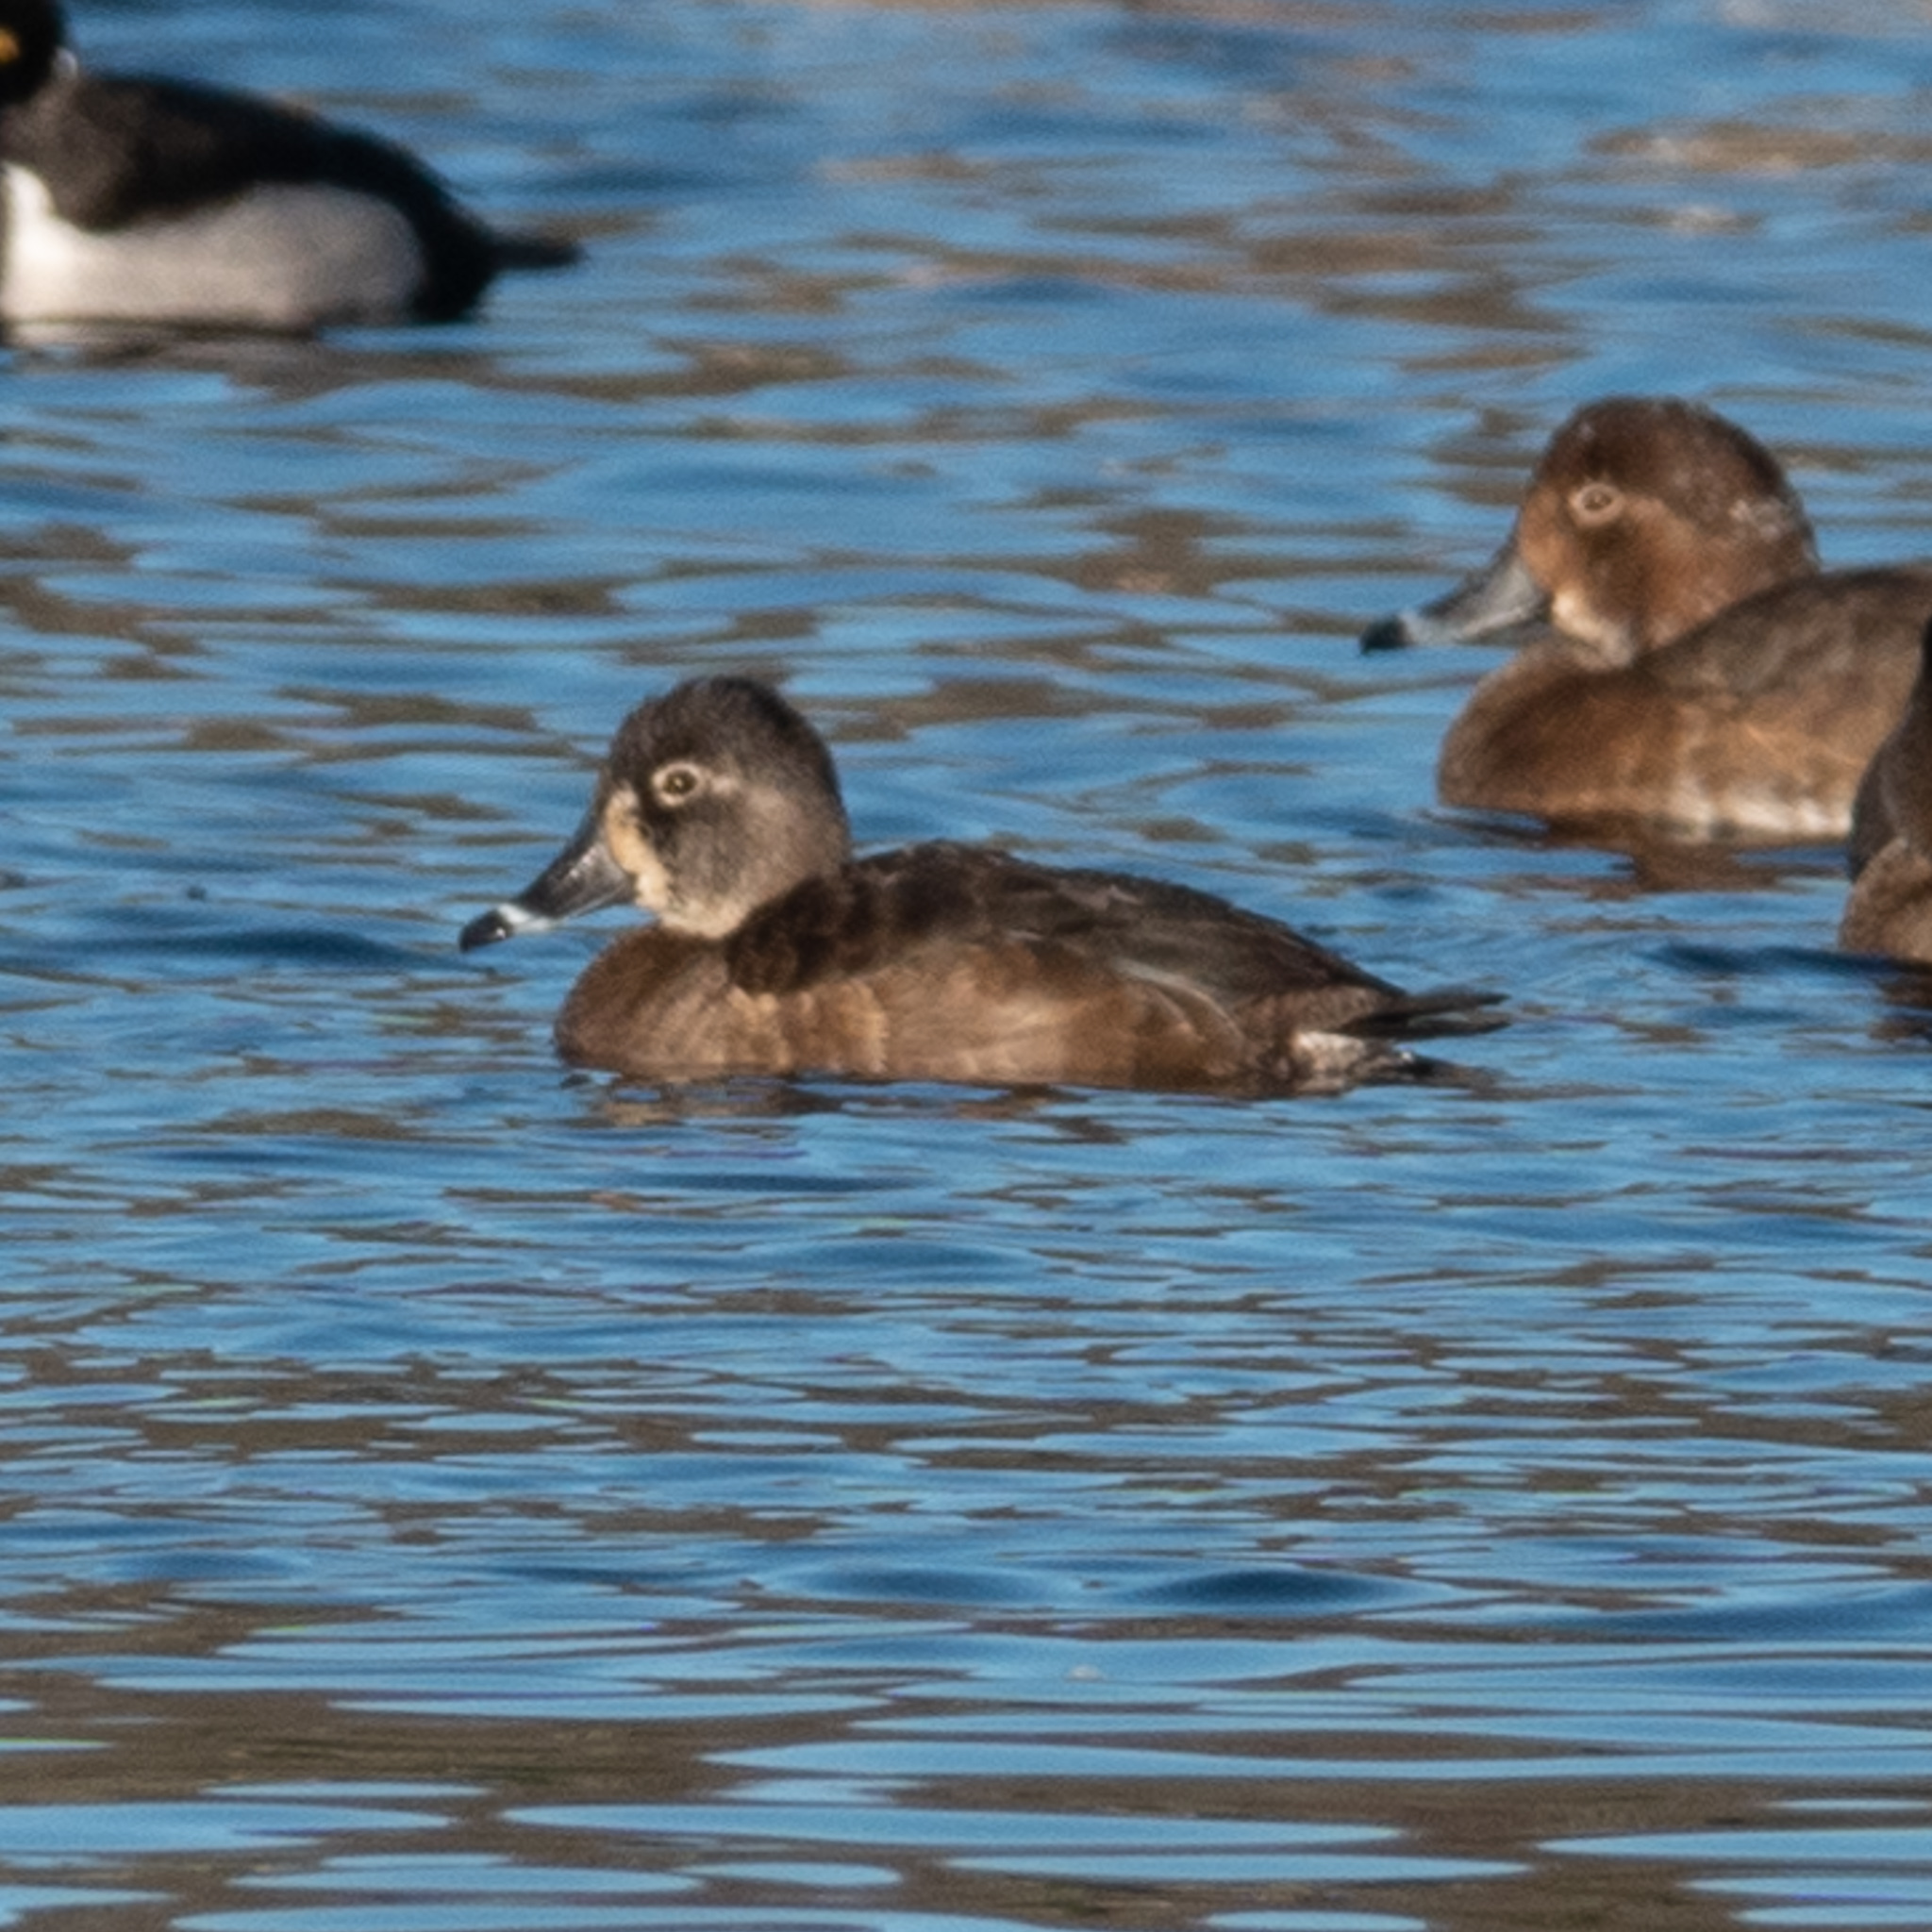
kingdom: Animalia
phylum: Chordata
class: Aves
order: Anseriformes
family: Anatidae
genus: Aythya
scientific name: Aythya collaris
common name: Ring-necked duck
